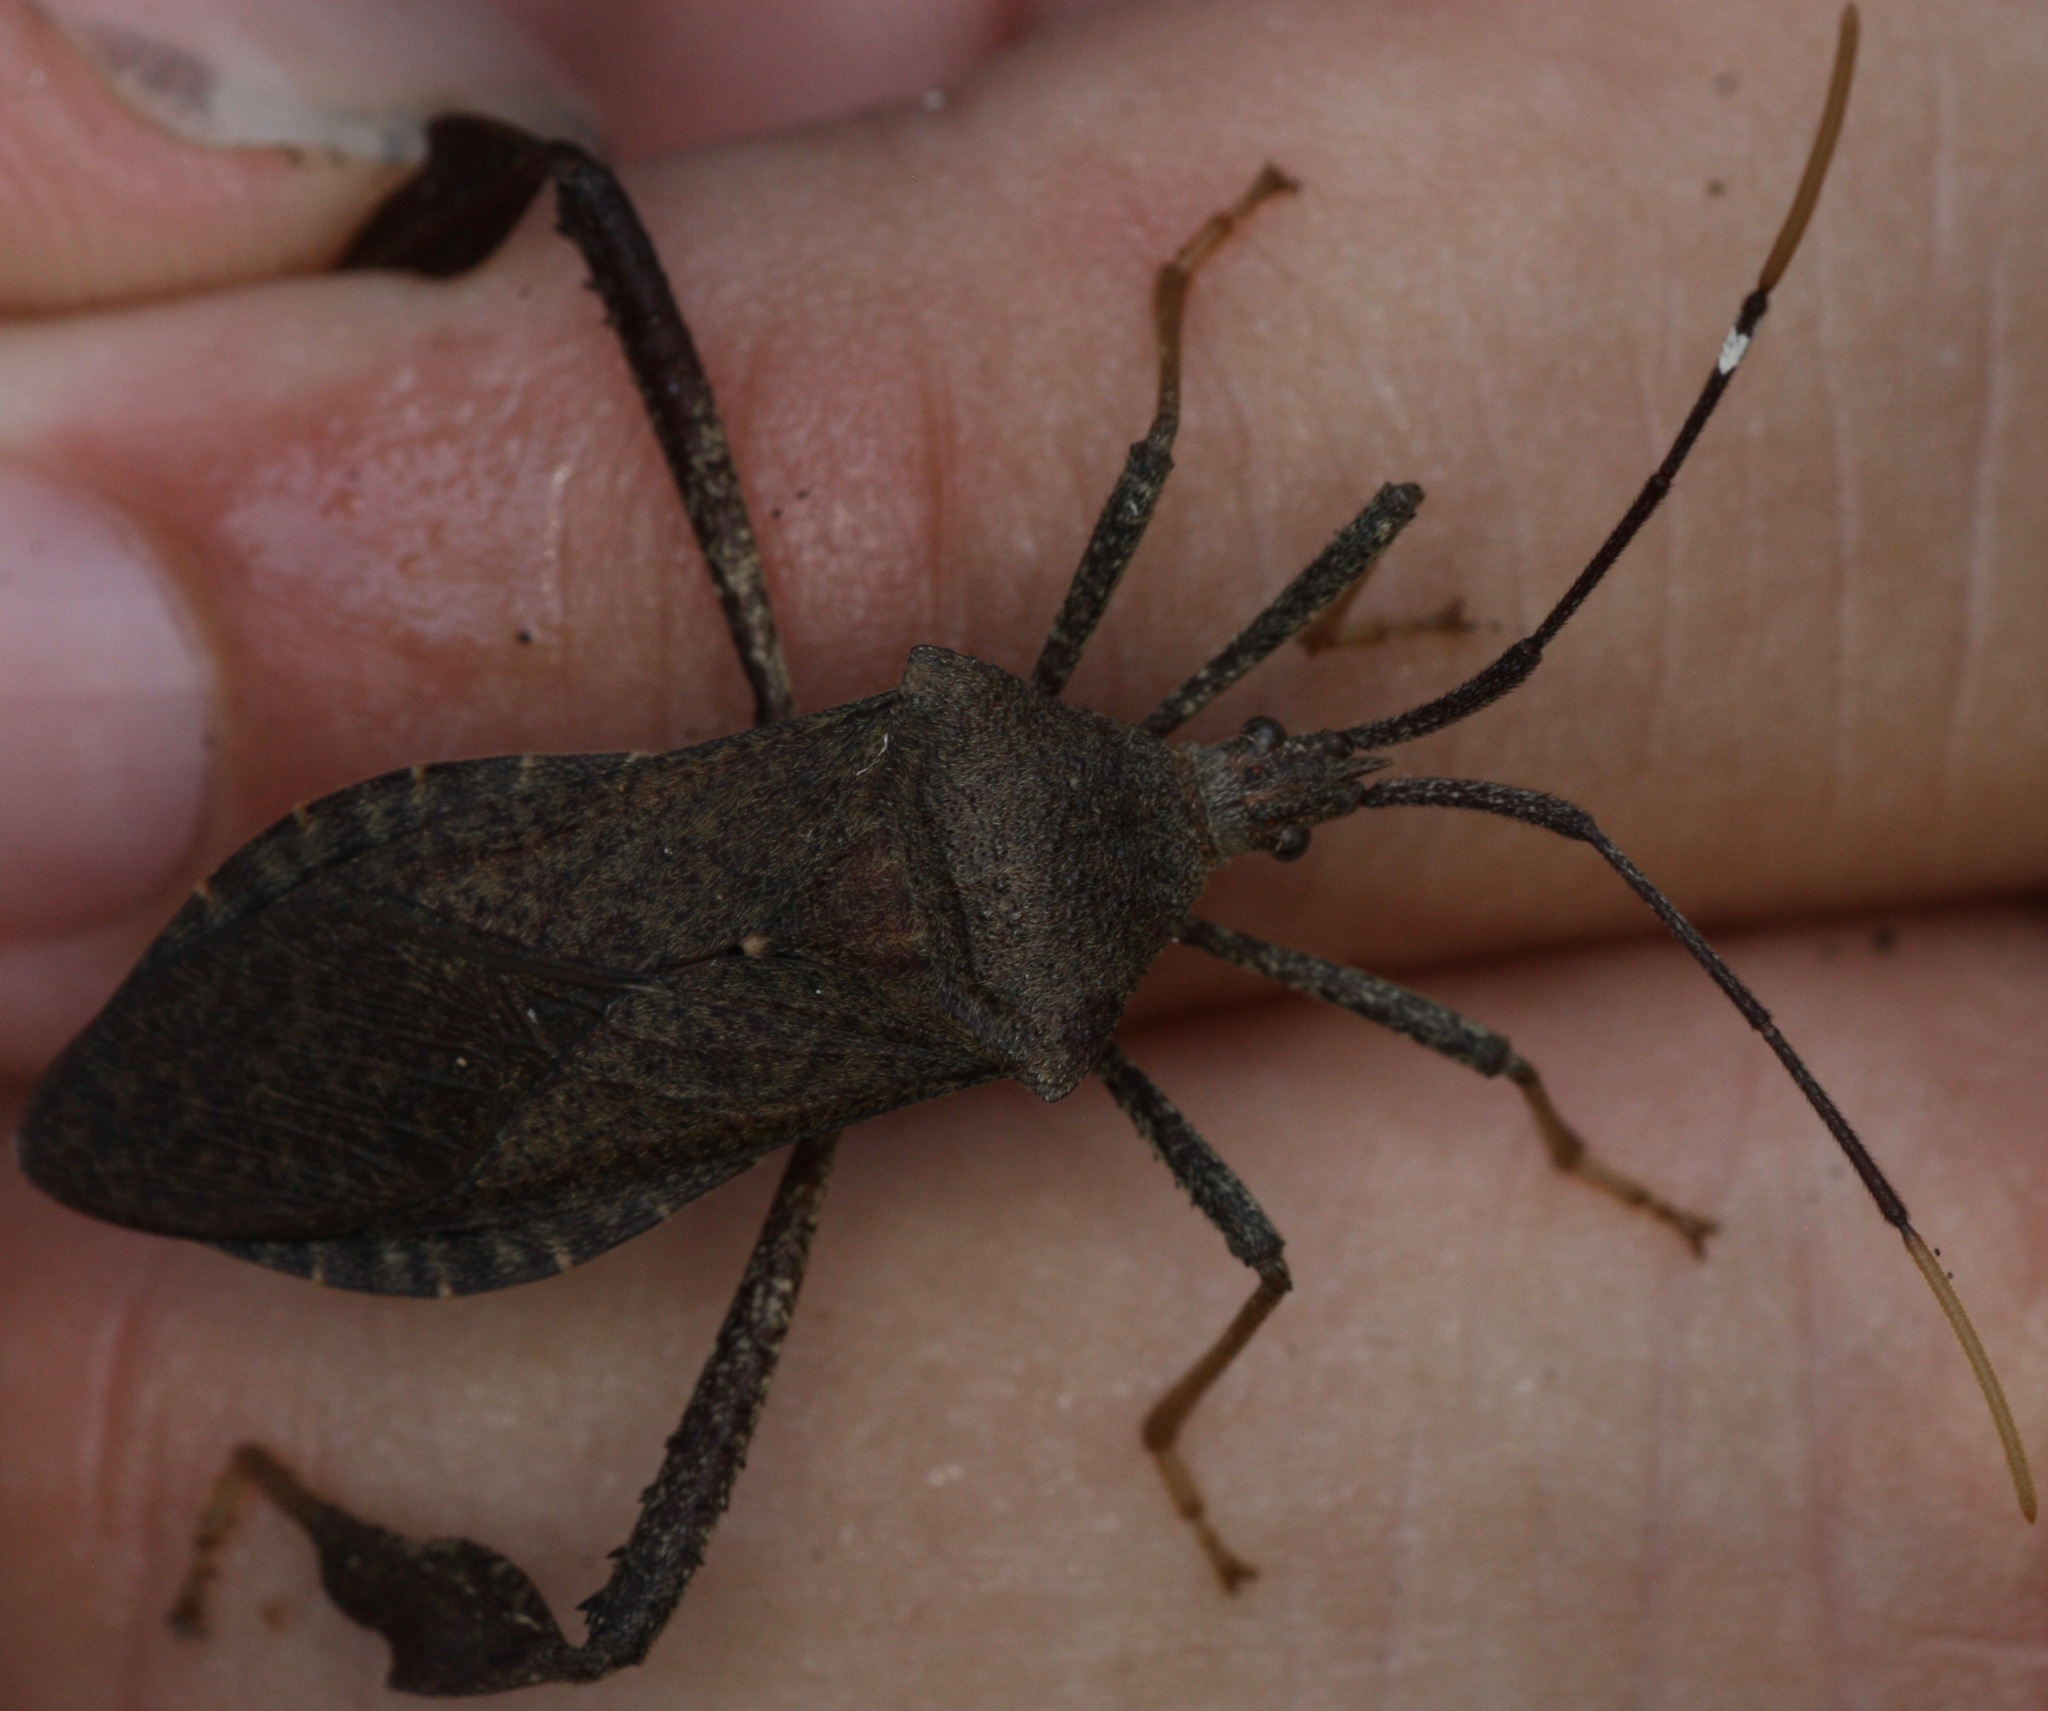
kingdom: Animalia
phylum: Arthropoda
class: Insecta
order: Hemiptera
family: Coreidae
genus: Acanthocephala
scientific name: Acanthocephala terminalis
